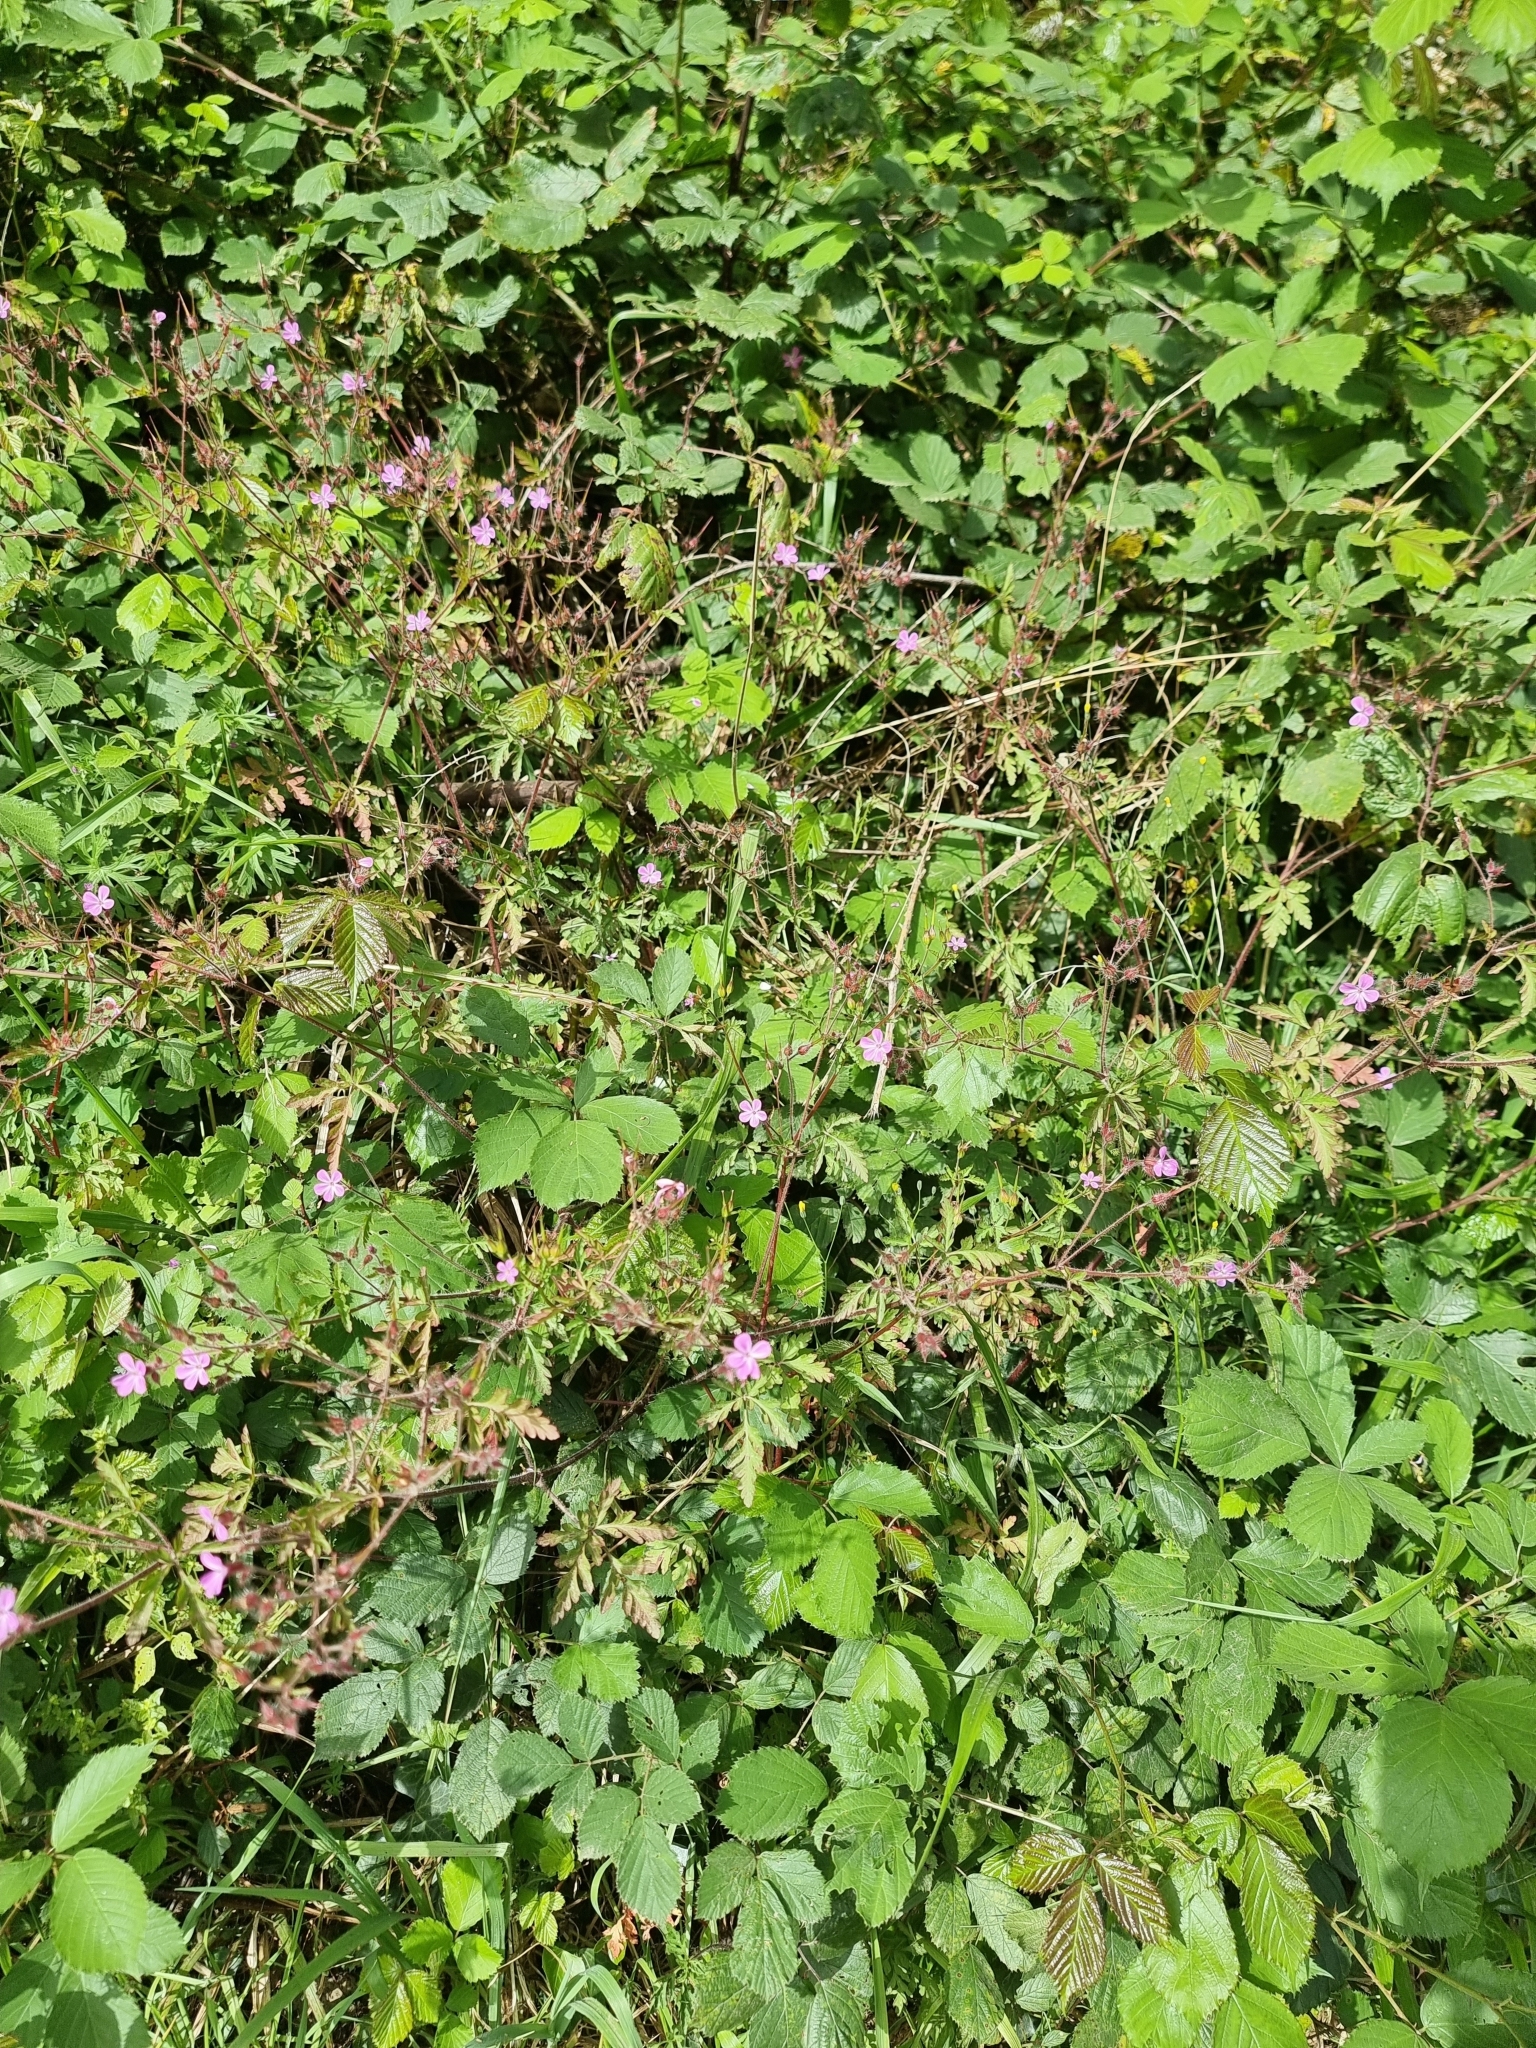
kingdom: Plantae
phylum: Tracheophyta
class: Magnoliopsida
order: Geraniales
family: Geraniaceae
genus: Geranium
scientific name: Geranium purpureum
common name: Little-robin
